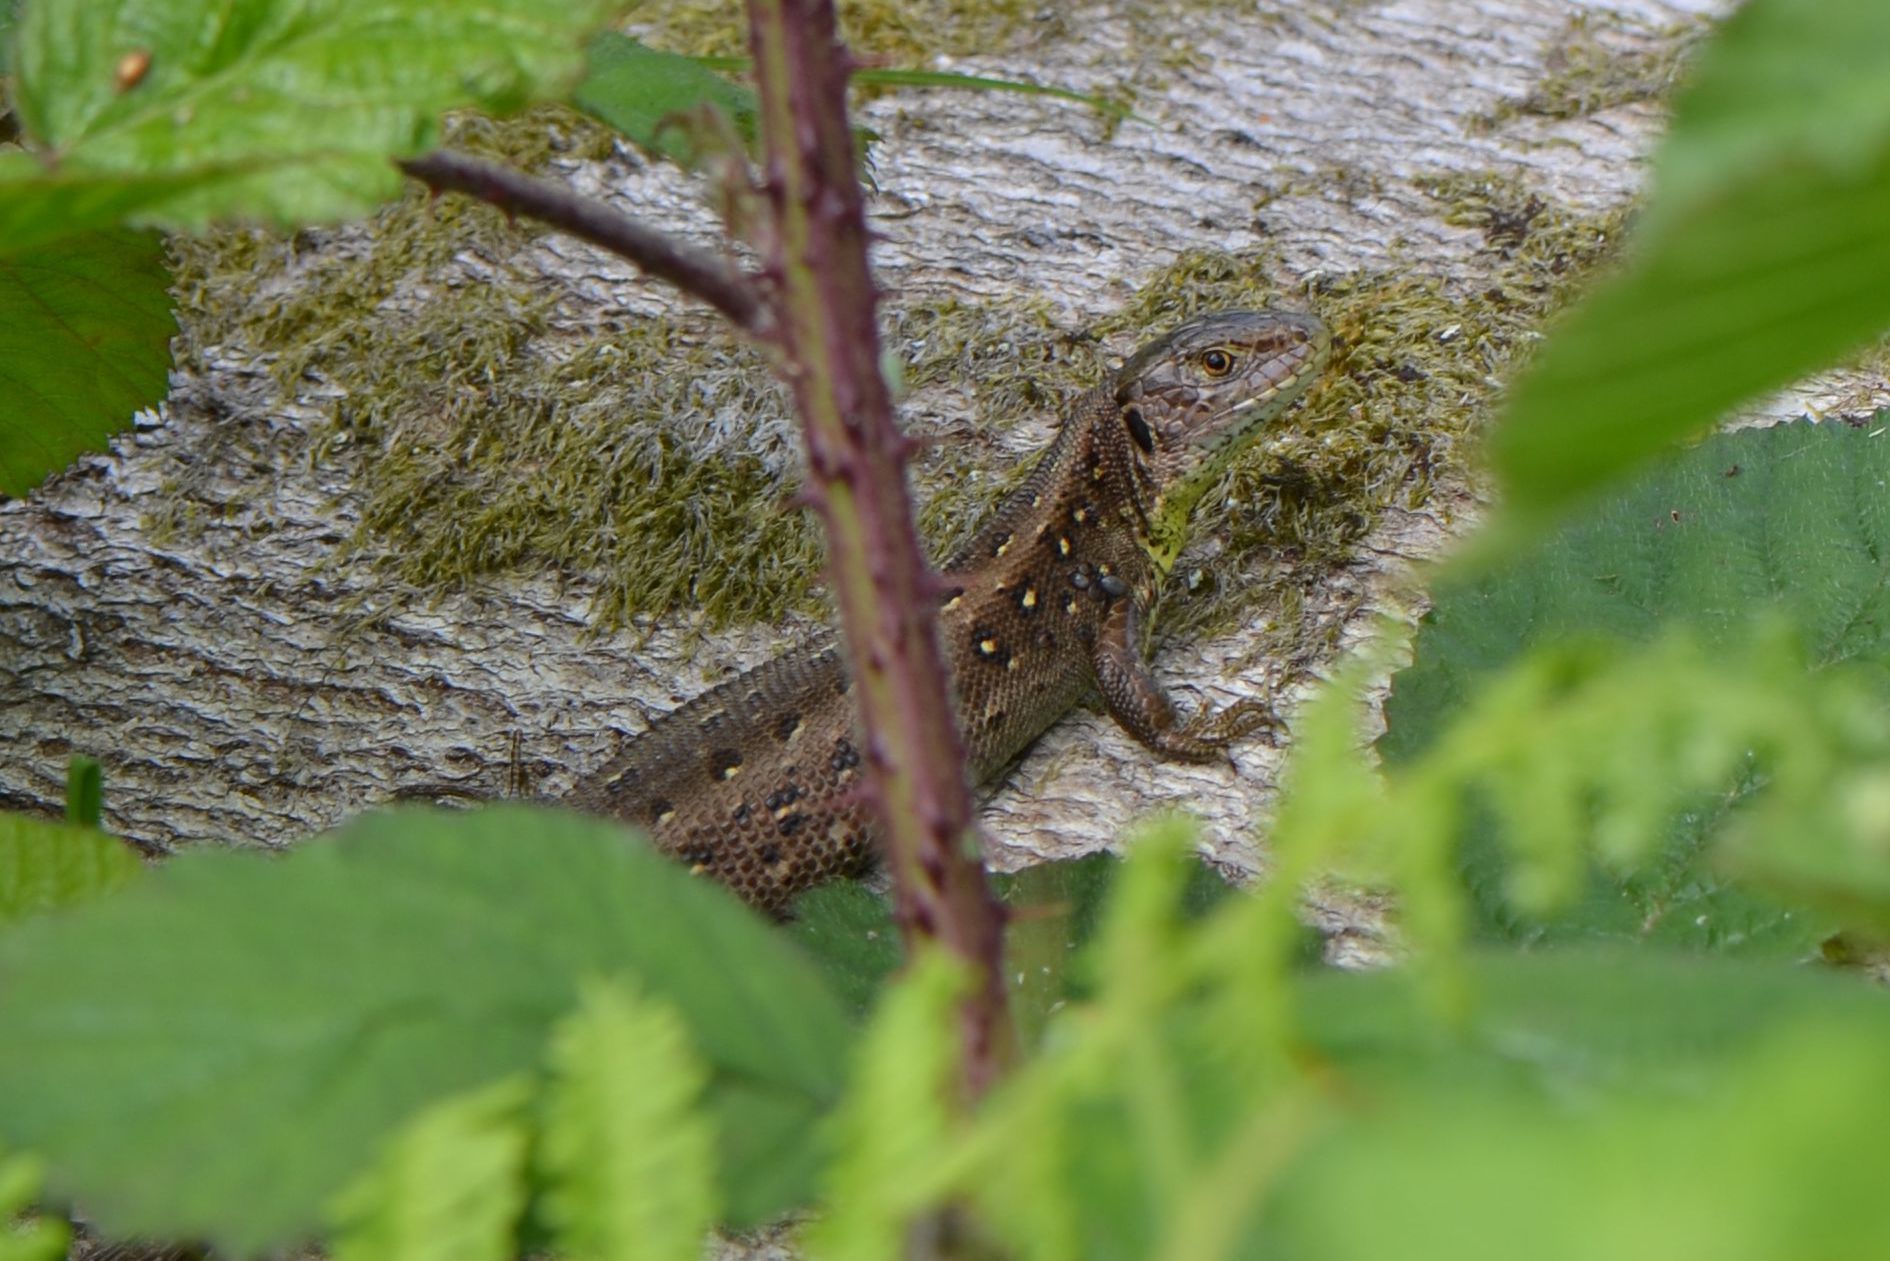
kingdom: Animalia
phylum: Chordata
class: Squamata
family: Lacertidae
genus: Lacerta
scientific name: Lacerta agilis
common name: Sand lizard
